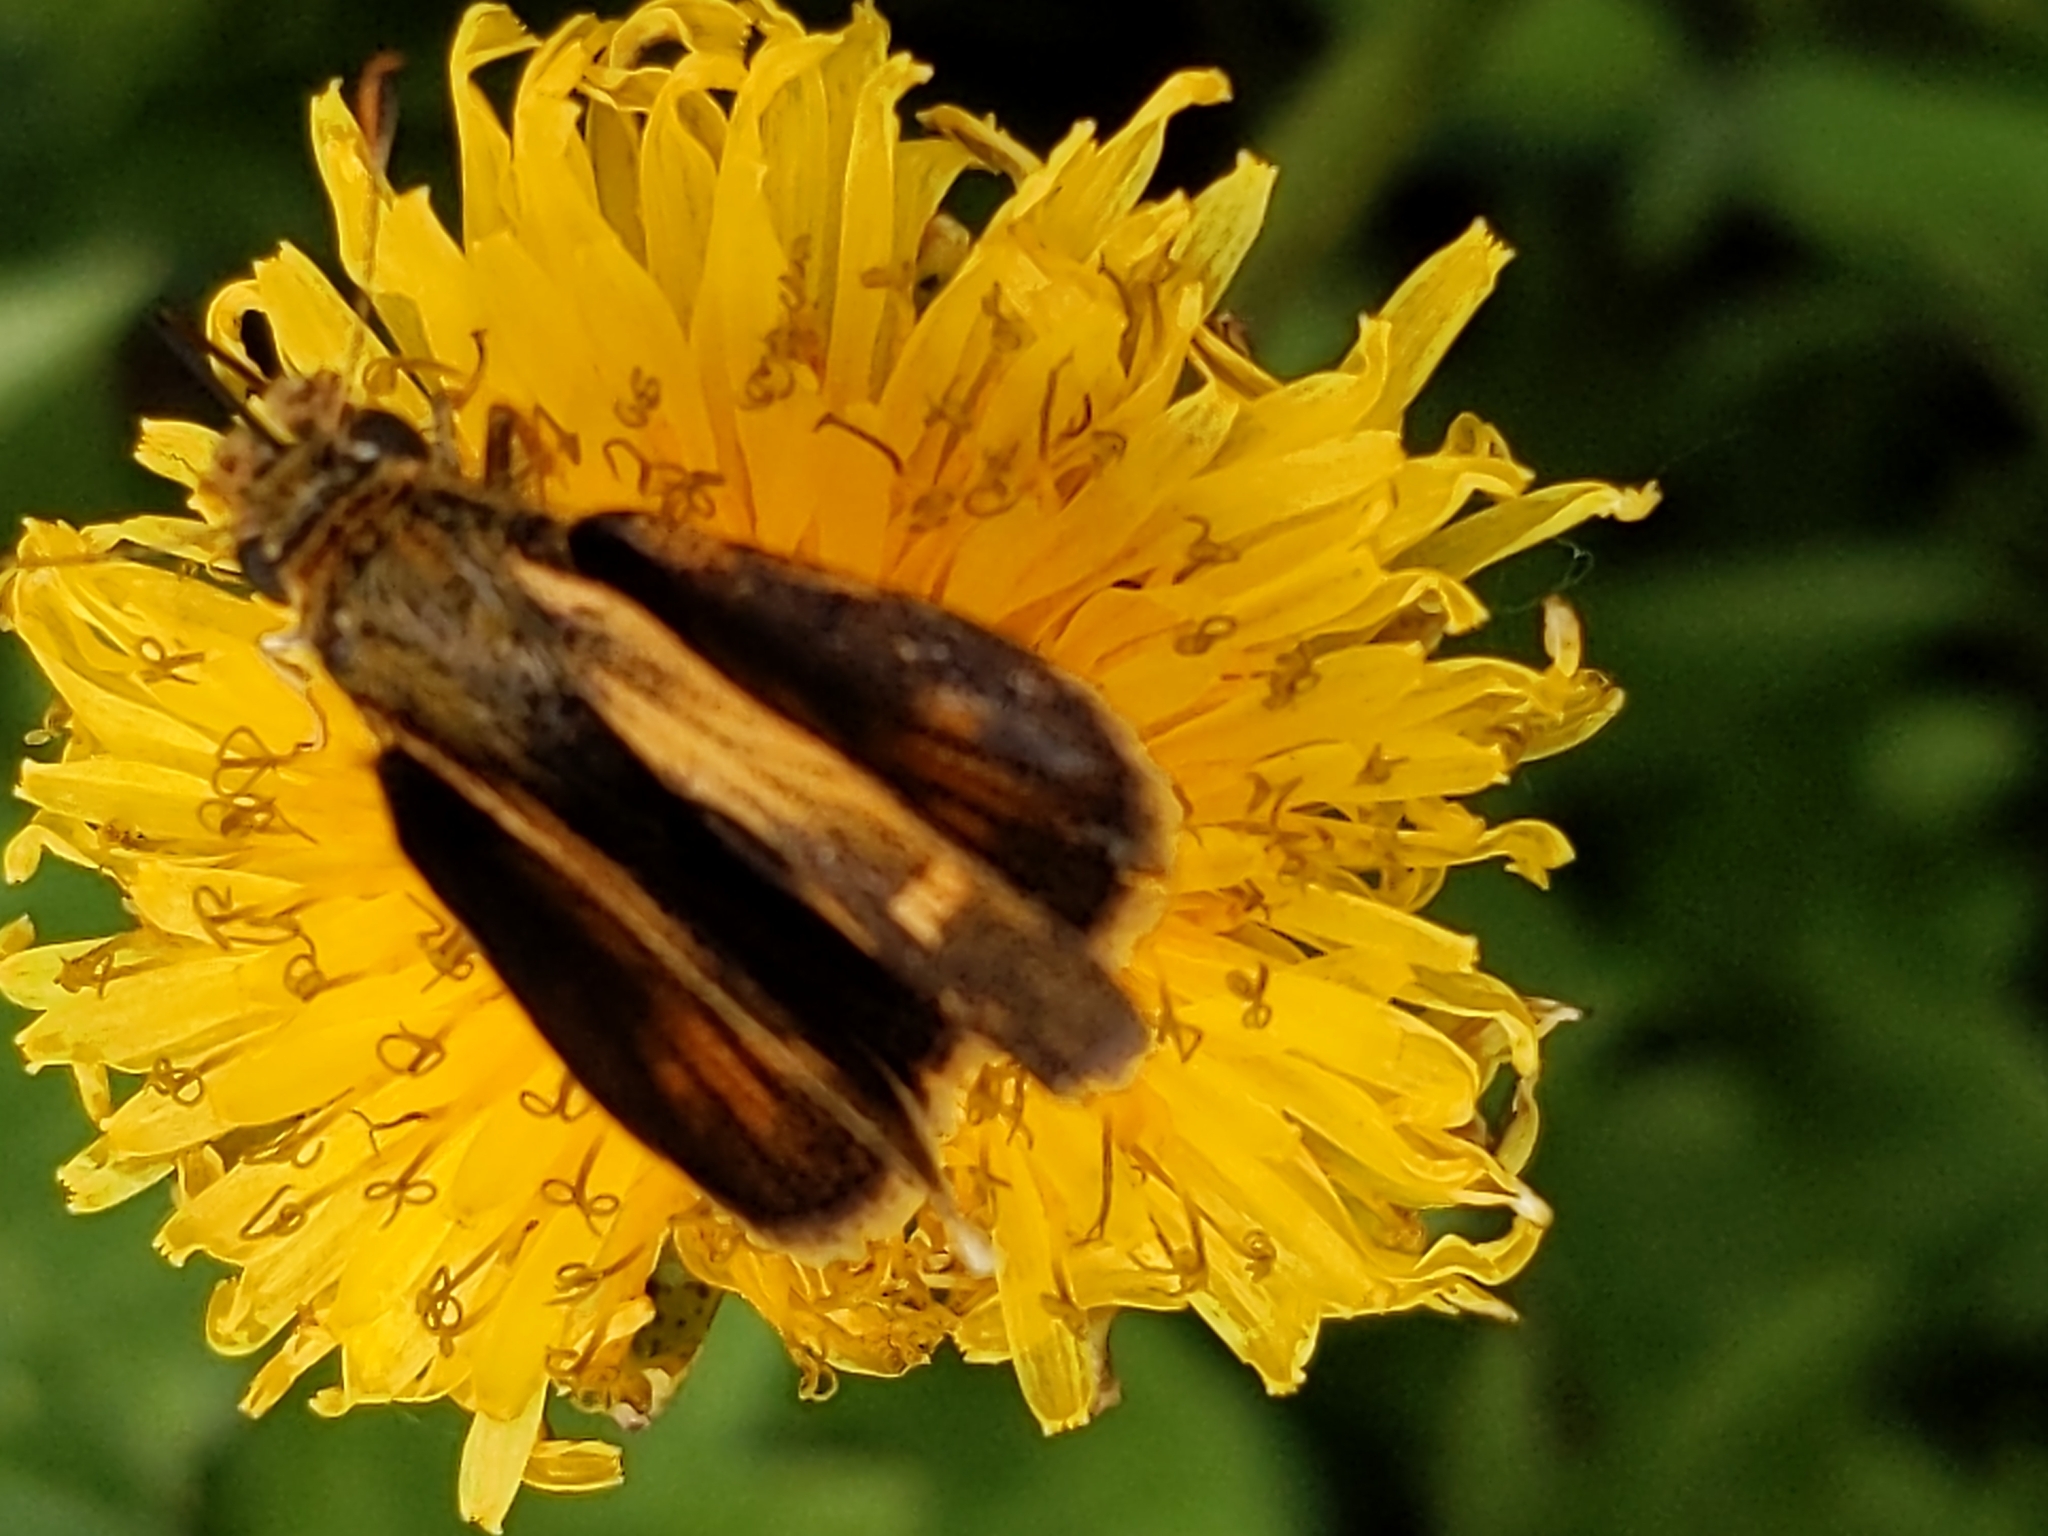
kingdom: Animalia
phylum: Arthropoda
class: Insecta
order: Lepidoptera
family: Hesperiidae
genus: Polites
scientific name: Polites coras
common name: Peck's skipper
